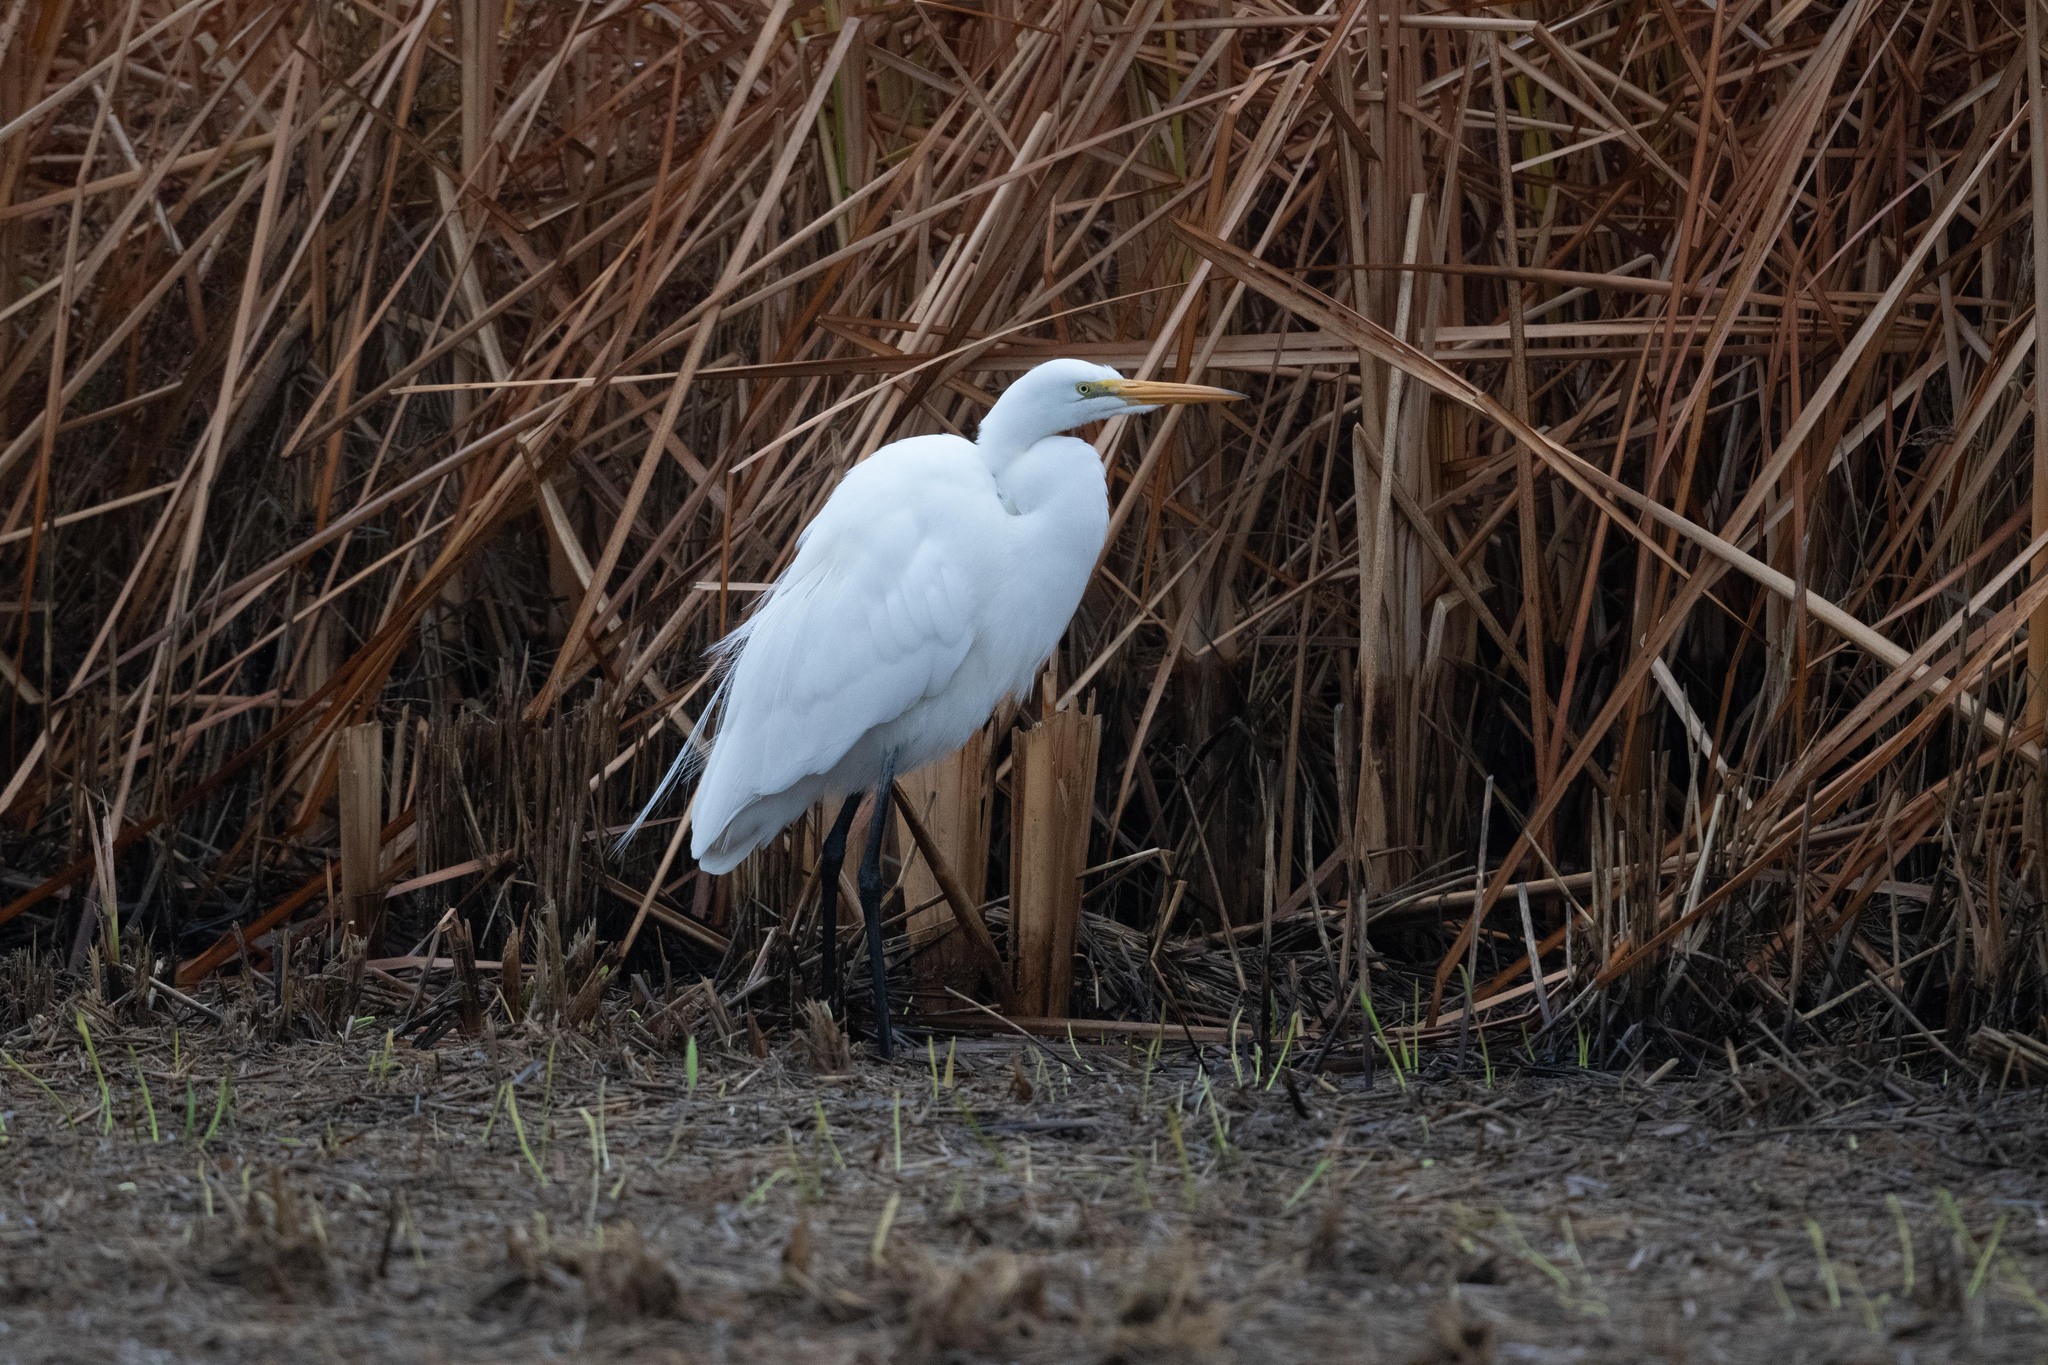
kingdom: Animalia
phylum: Chordata
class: Aves
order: Pelecaniformes
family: Ardeidae
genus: Ardea
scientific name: Ardea alba
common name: Great egret
